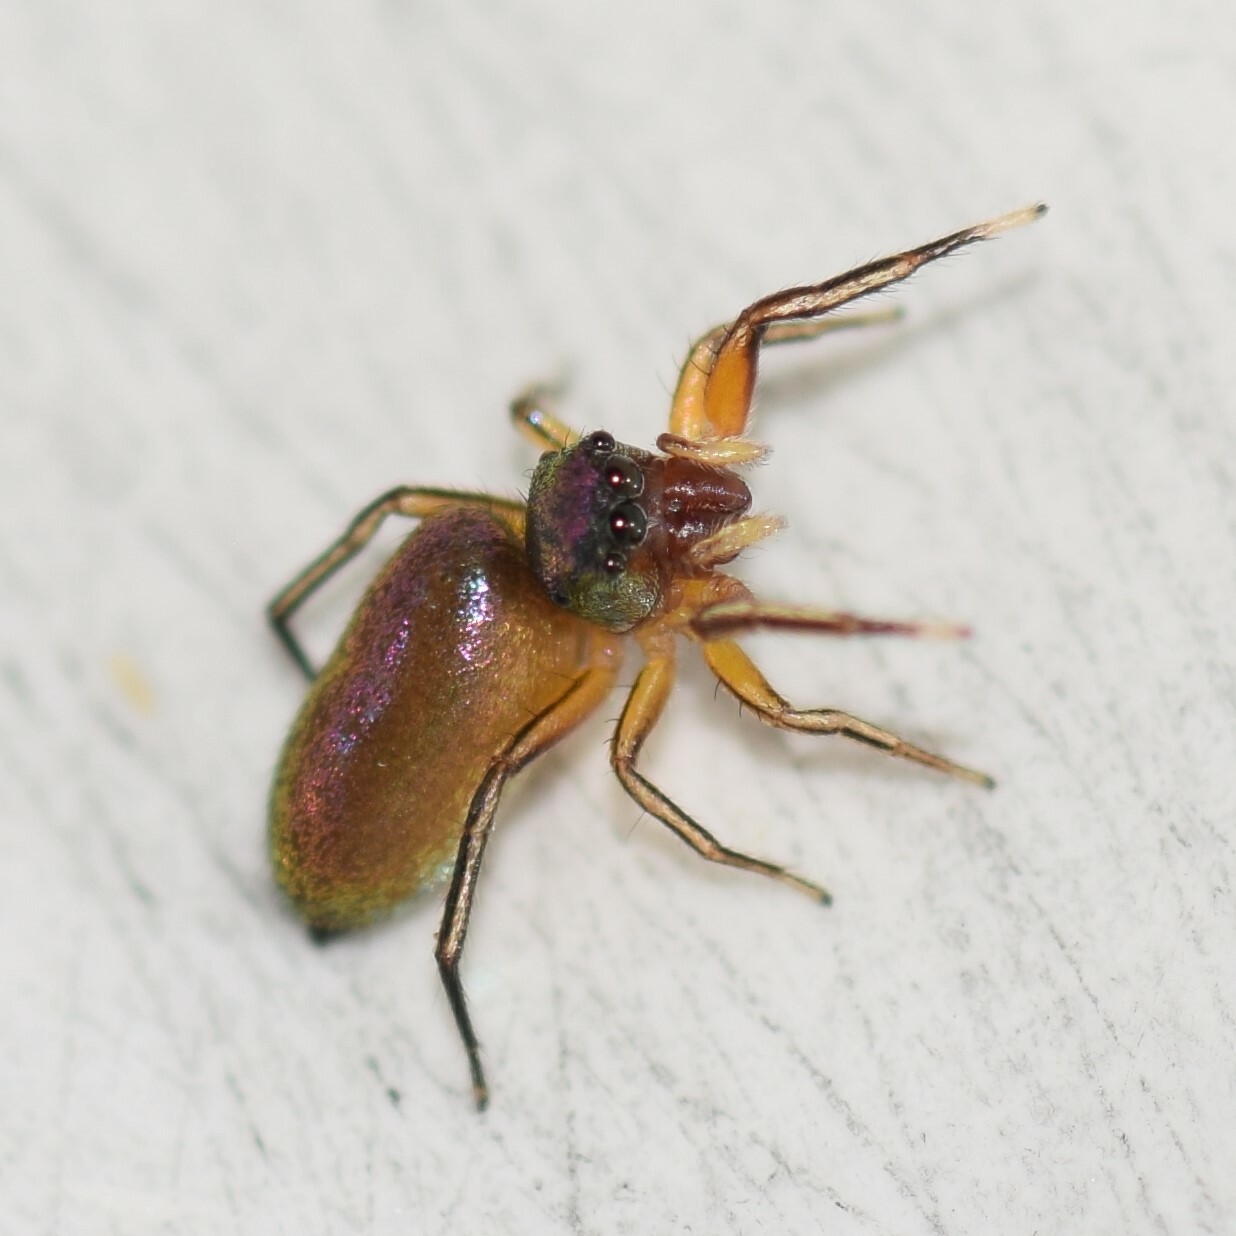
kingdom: Animalia
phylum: Arthropoda
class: Arachnida
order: Araneae
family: Salticidae
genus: Tutelina
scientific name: Tutelina similis
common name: Thick-spined jumping spider
